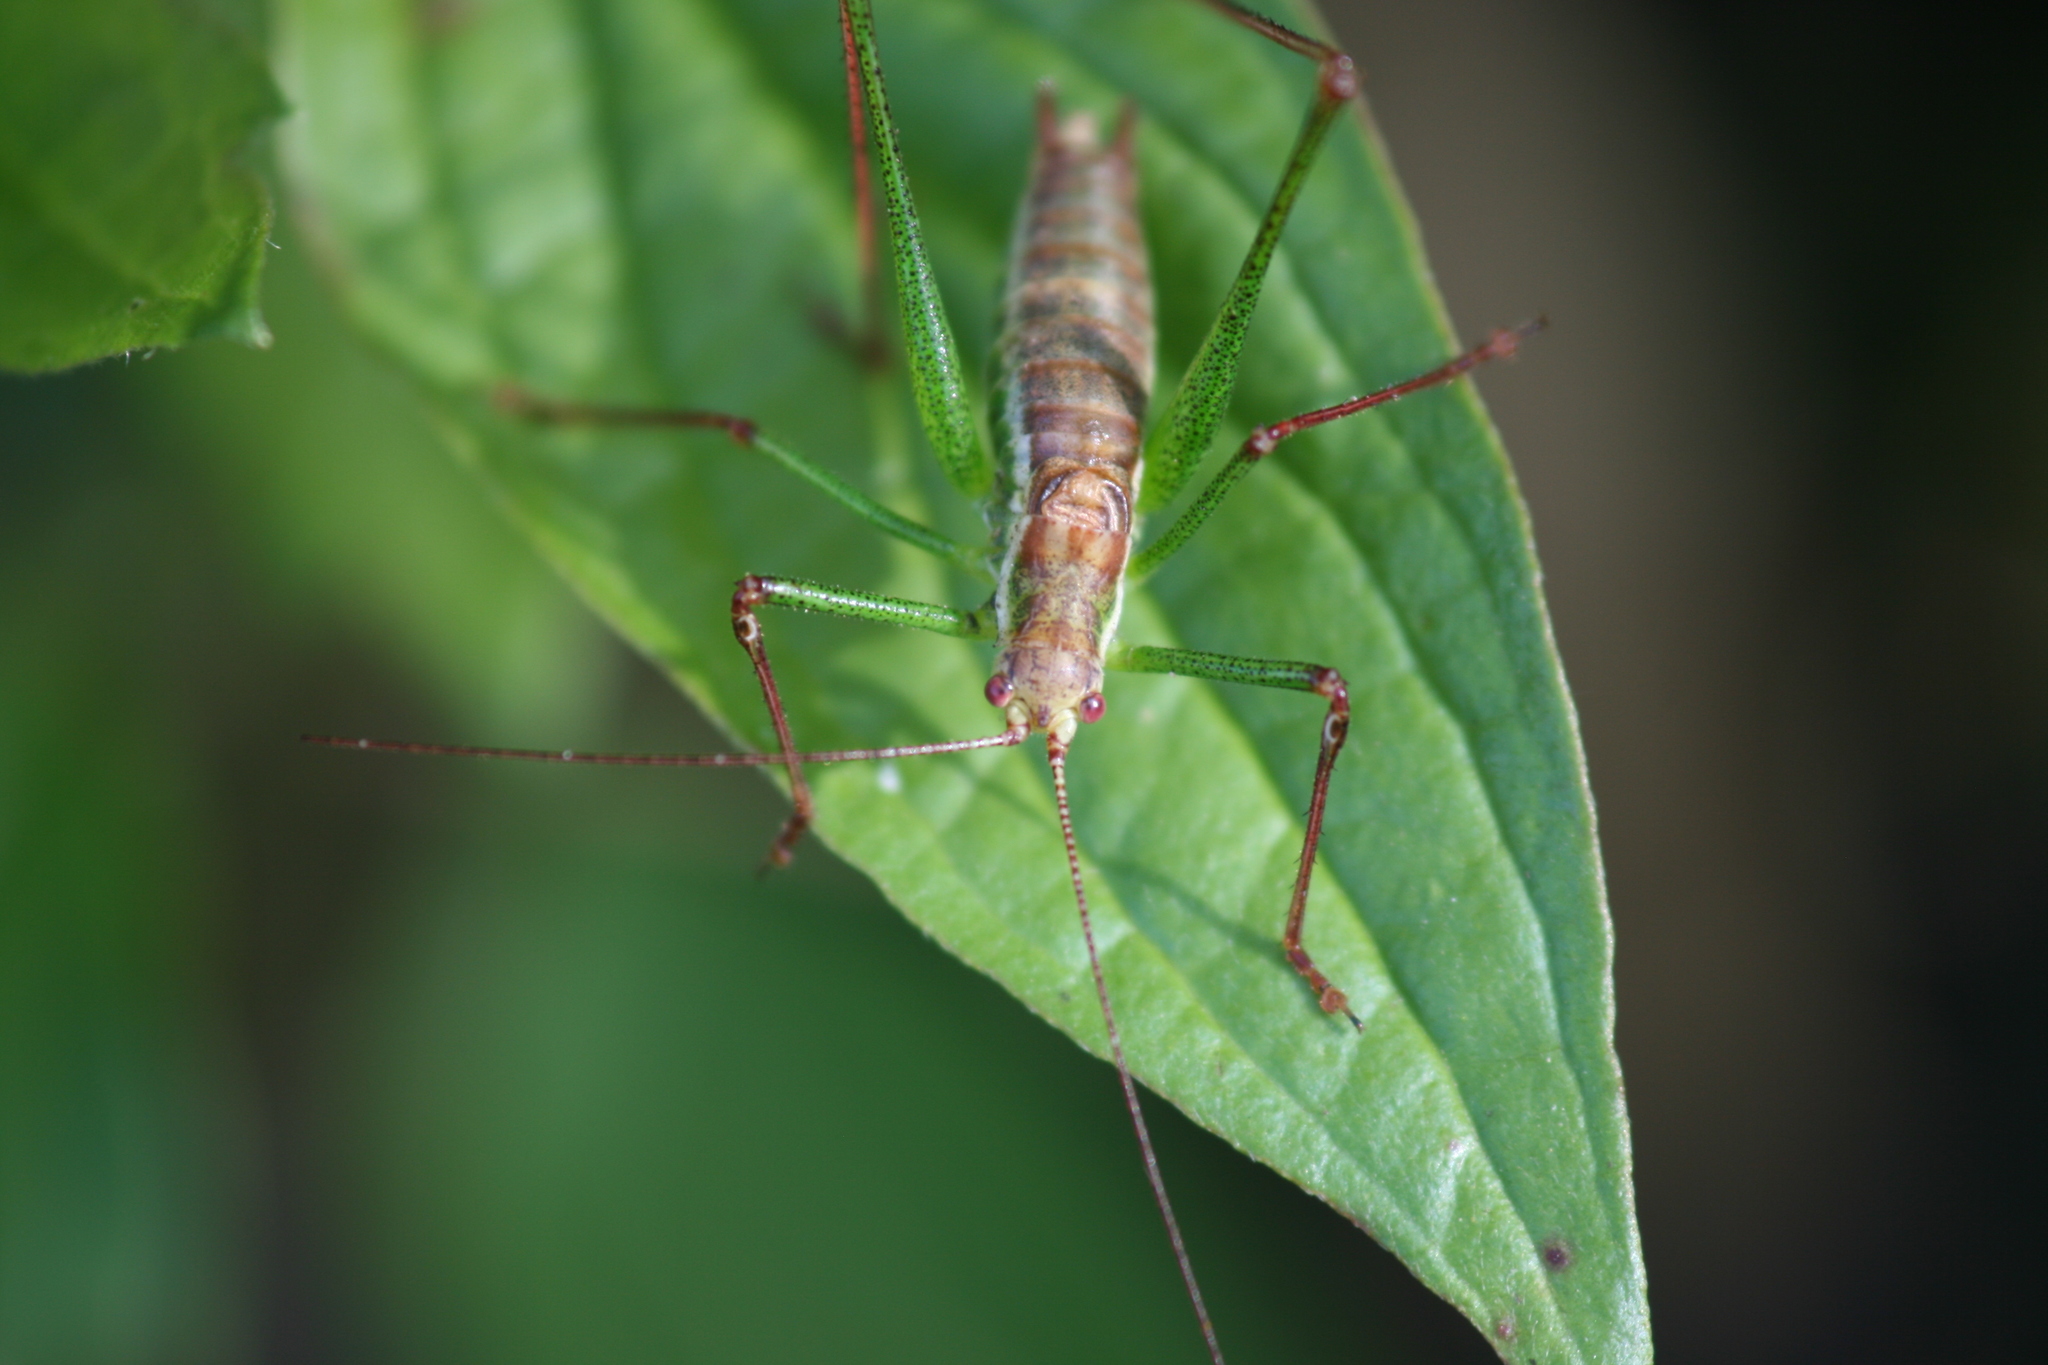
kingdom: Animalia
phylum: Arthropoda
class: Insecta
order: Orthoptera
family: Tettigoniidae
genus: Leptophyes
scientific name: Leptophyes albovittata
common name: Striped bush-cricket
